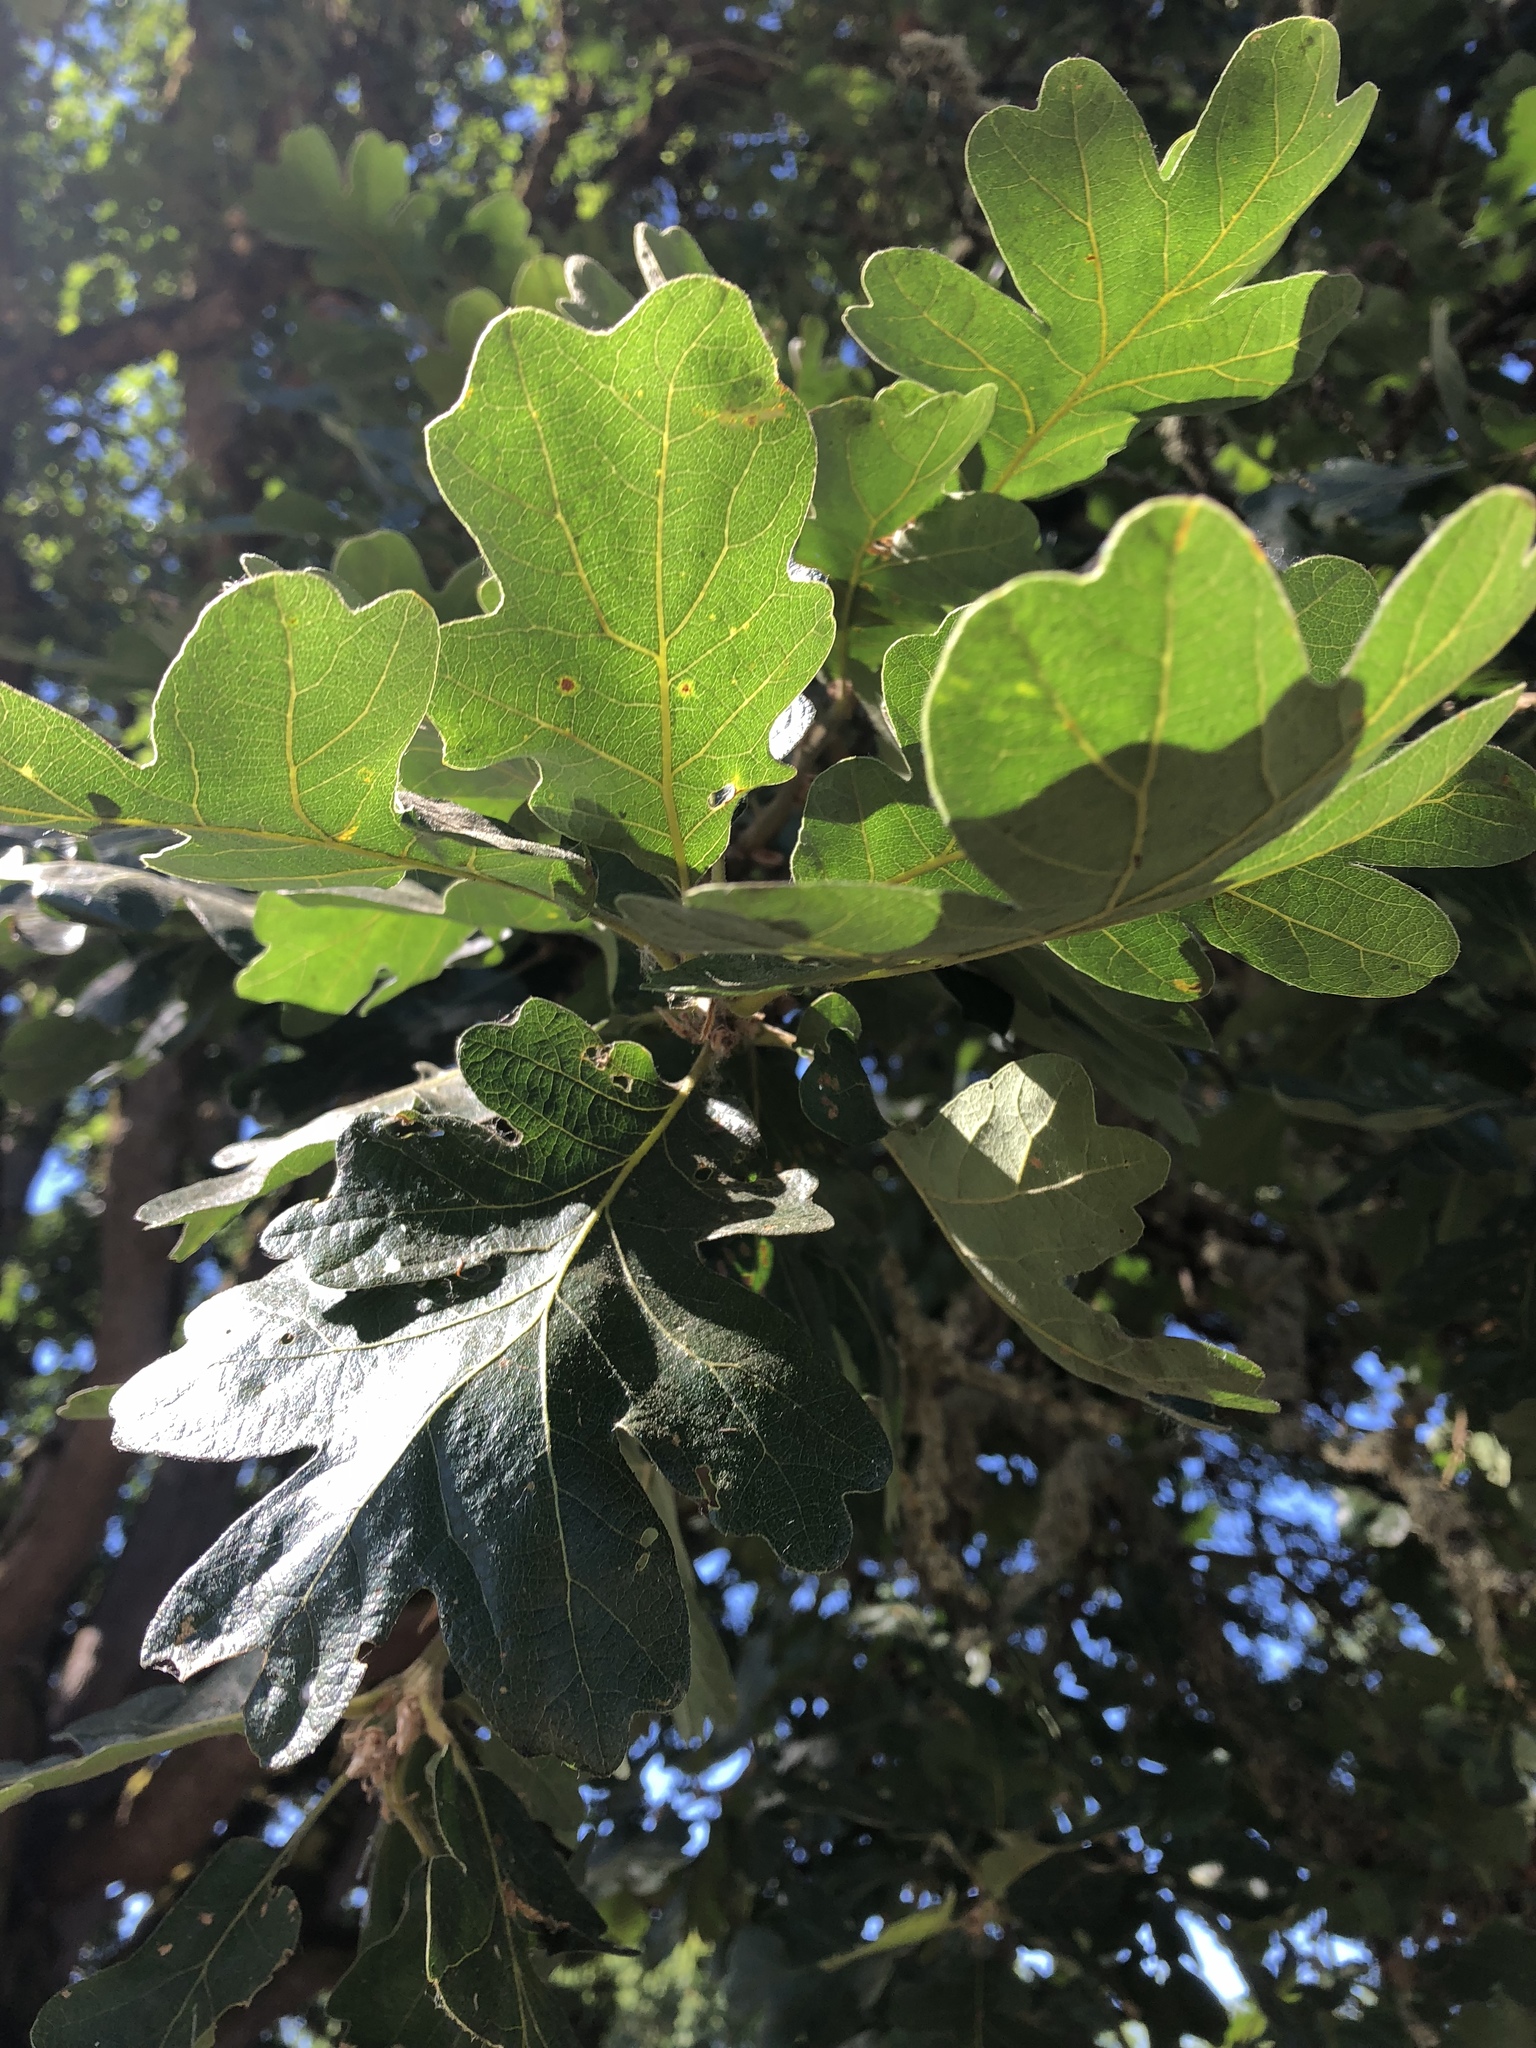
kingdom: Plantae
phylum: Tracheophyta
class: Magnoliopsida
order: Fagales
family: Fagaceae
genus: Quercus
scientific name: Quercus garryana
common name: Garry oak
